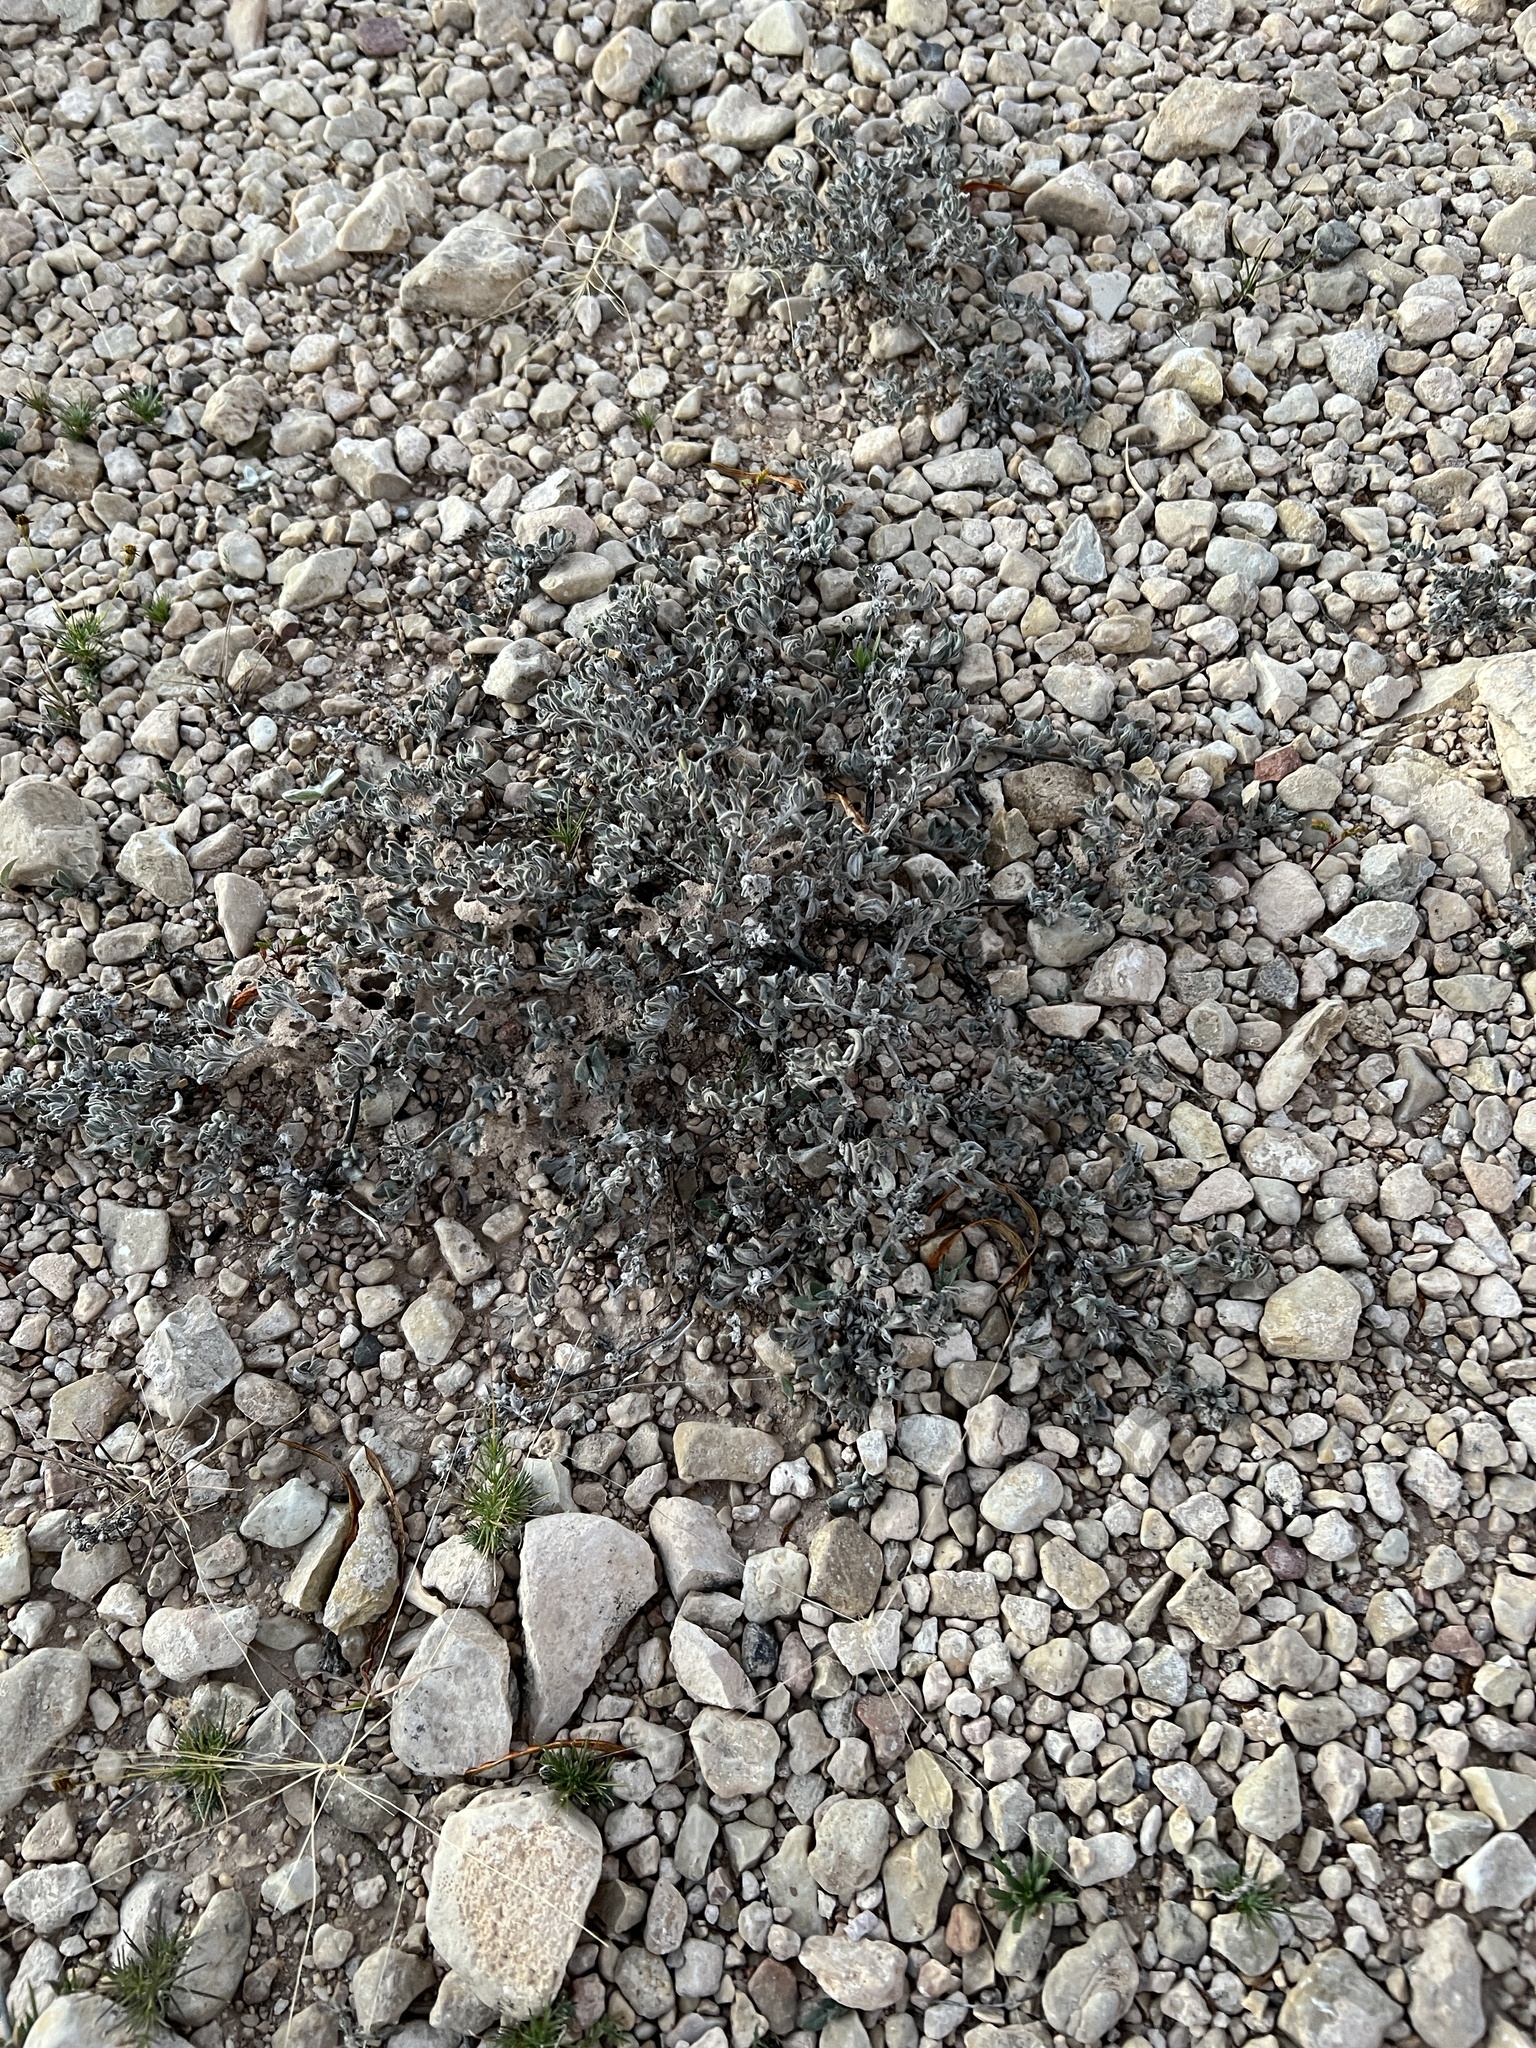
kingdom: Plantae
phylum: Tracheophyta
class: Magnoliopsida
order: Boraginales
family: Ehretiaceae
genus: Tiquilia
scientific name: Tiquilia canescens
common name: Hairy tiquilia
